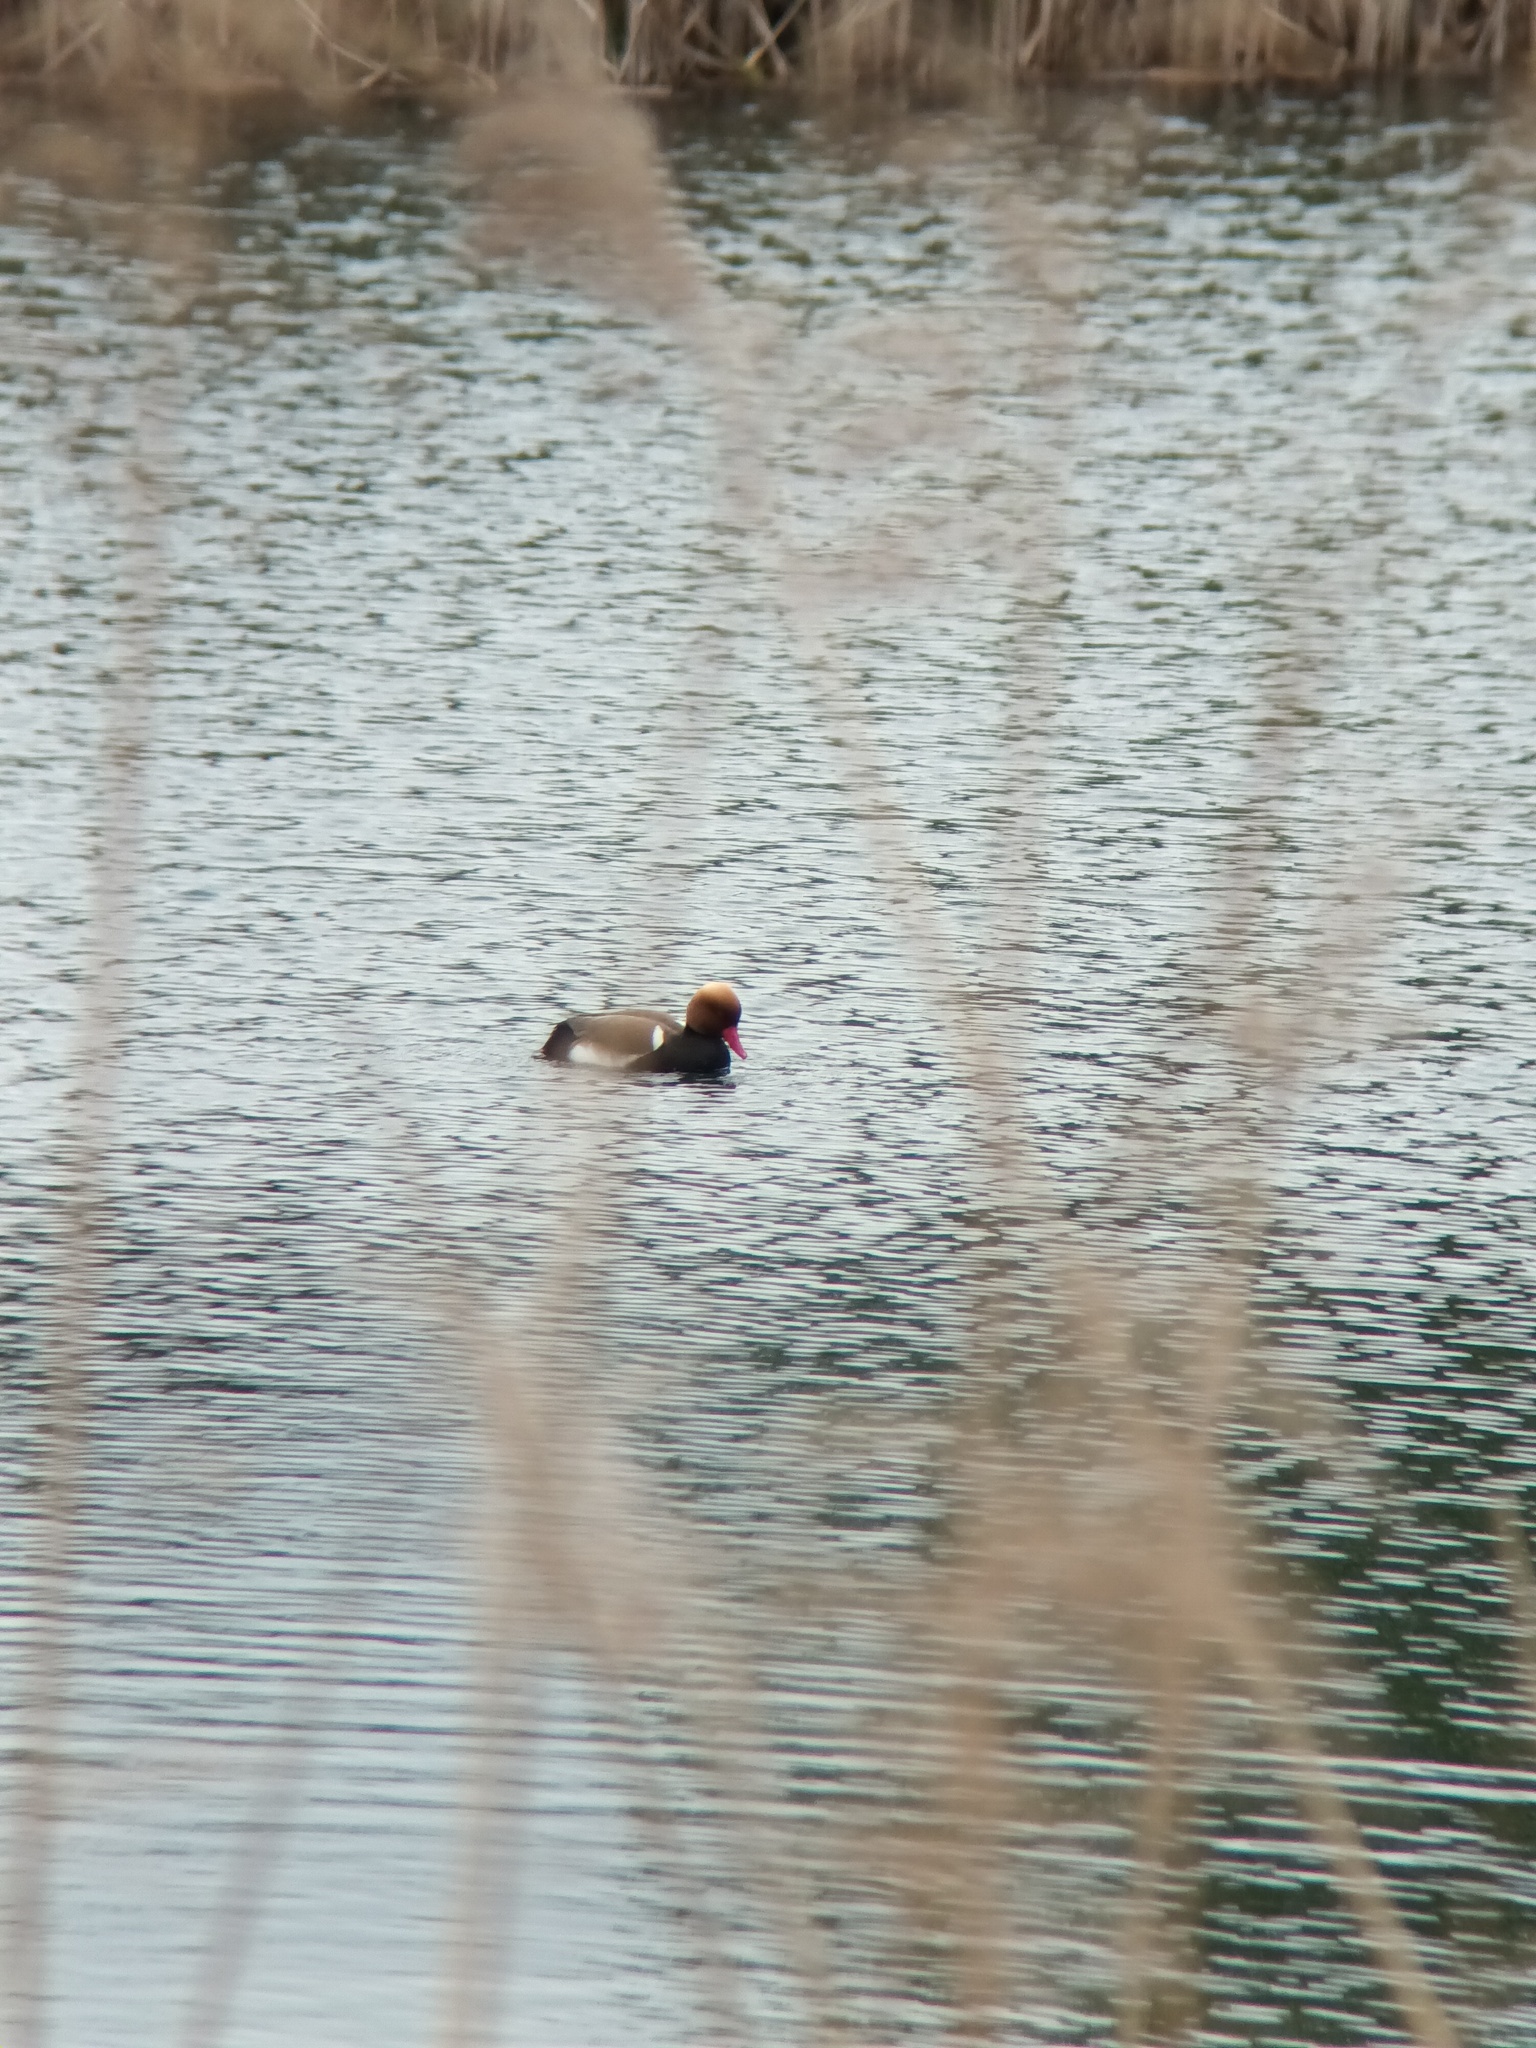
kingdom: Animalia
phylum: Chordata
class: Aves
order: Anseriformes
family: Anatidae
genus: Netta
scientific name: Netta rufina
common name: Red-crested pochard
